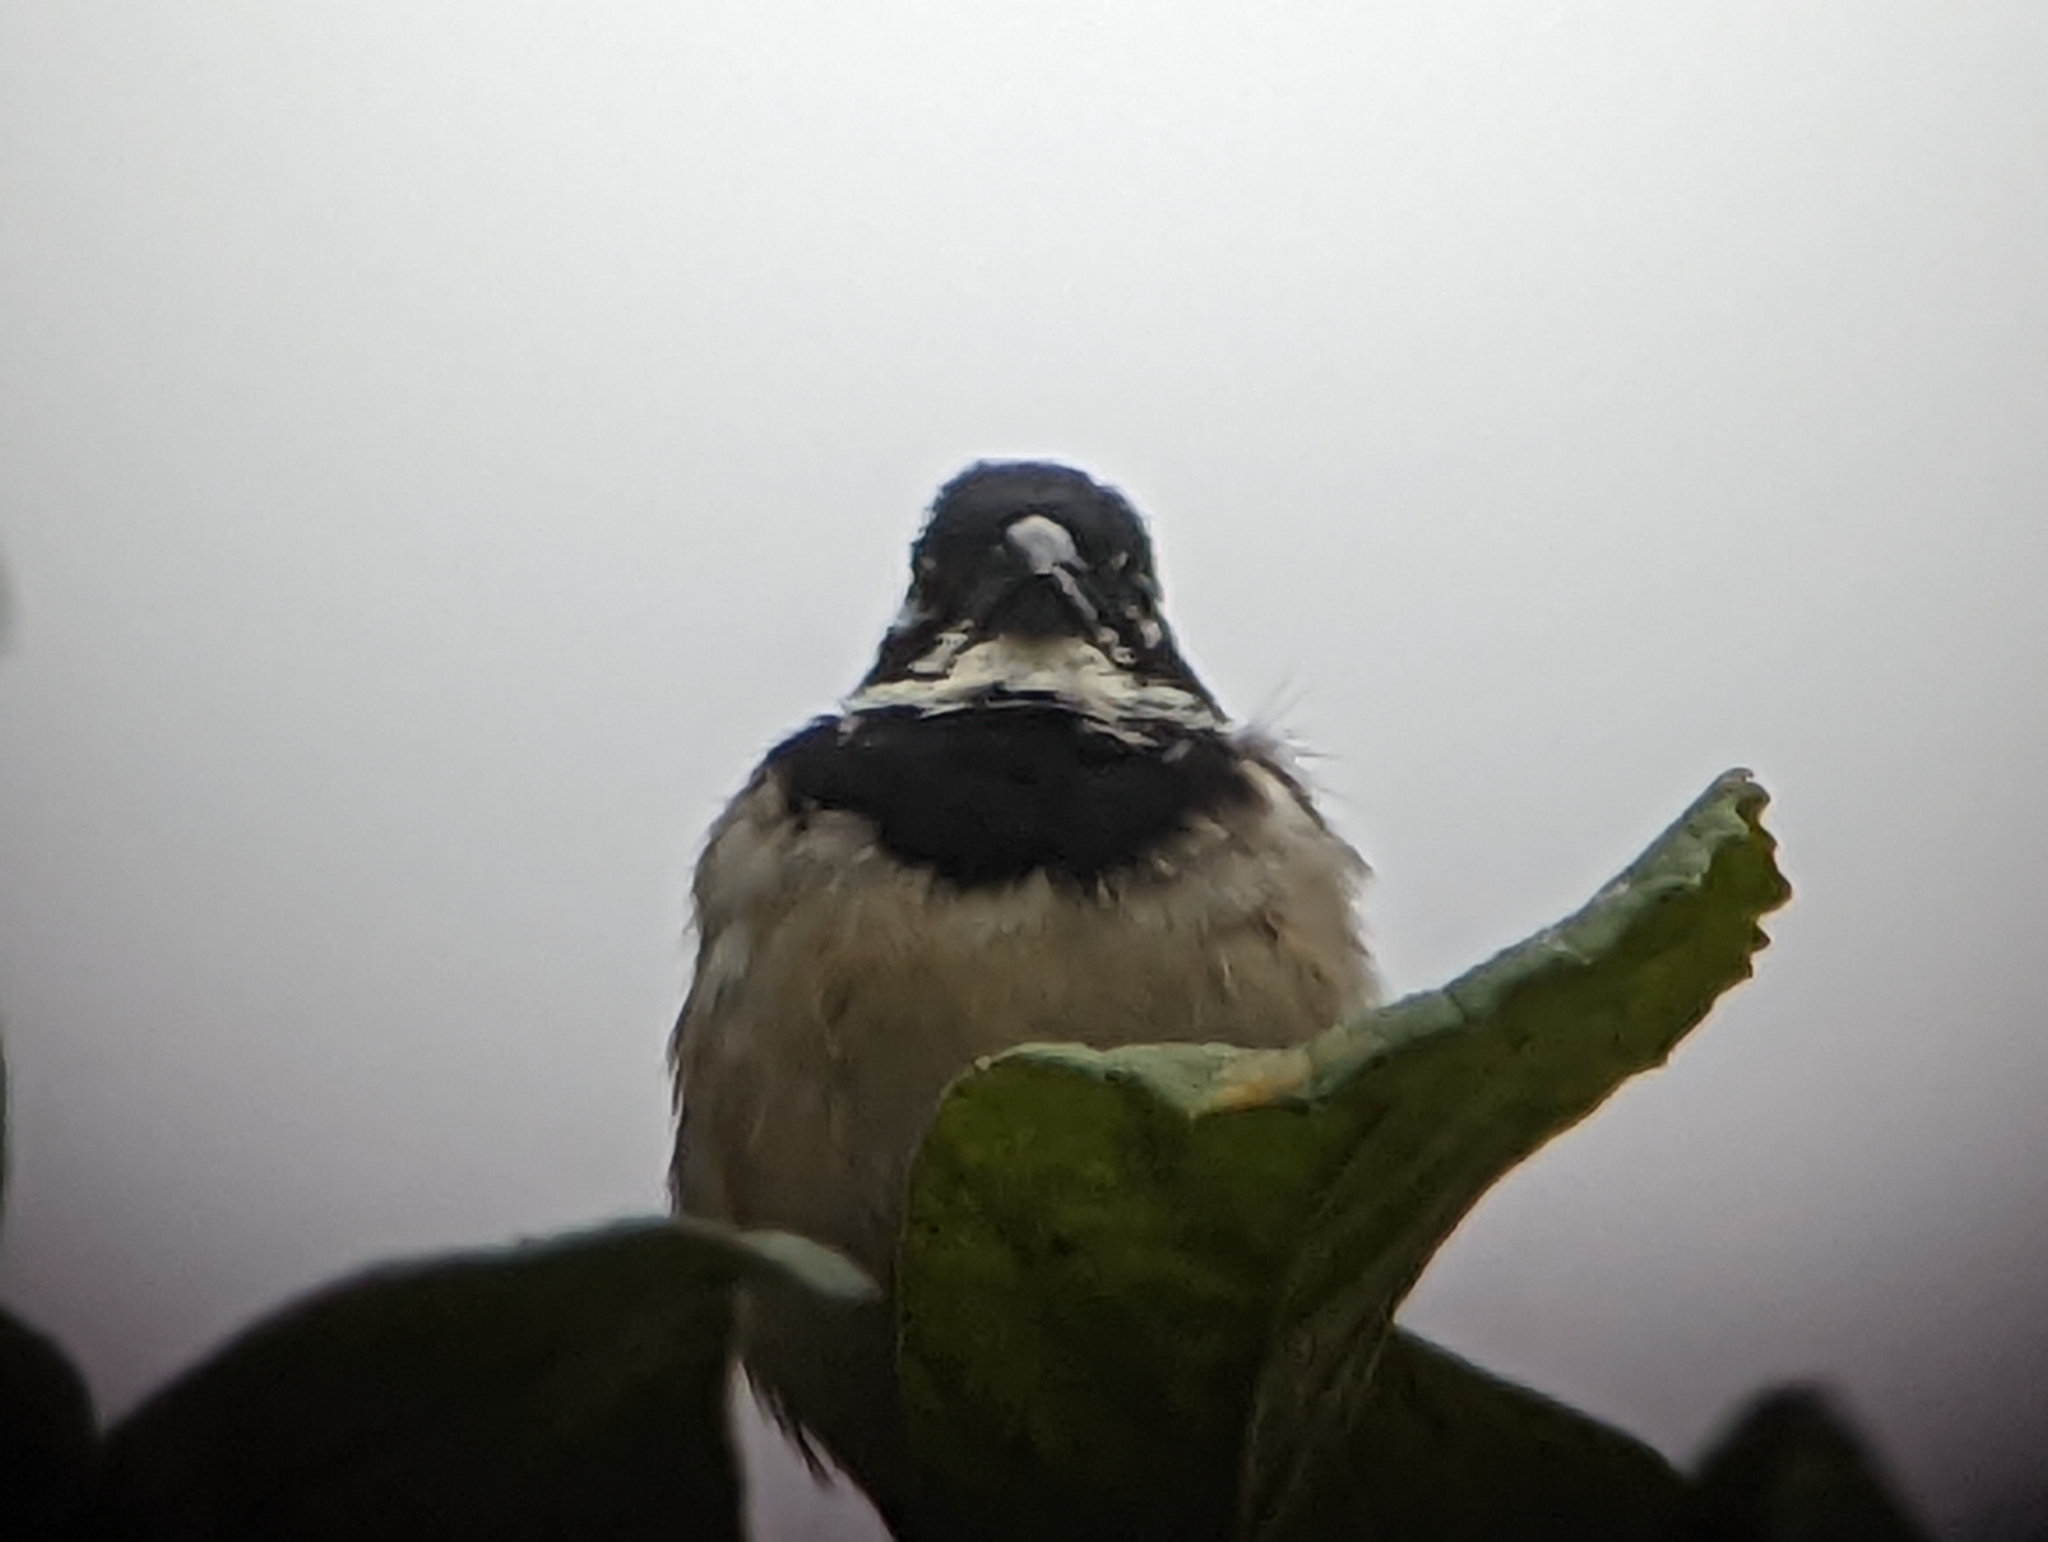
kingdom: Animalia
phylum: Chordata
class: Aves
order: Passeriformes
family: Thraupidae
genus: Sporophila
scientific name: Sporophila morelleti
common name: Morelet's seedeater
